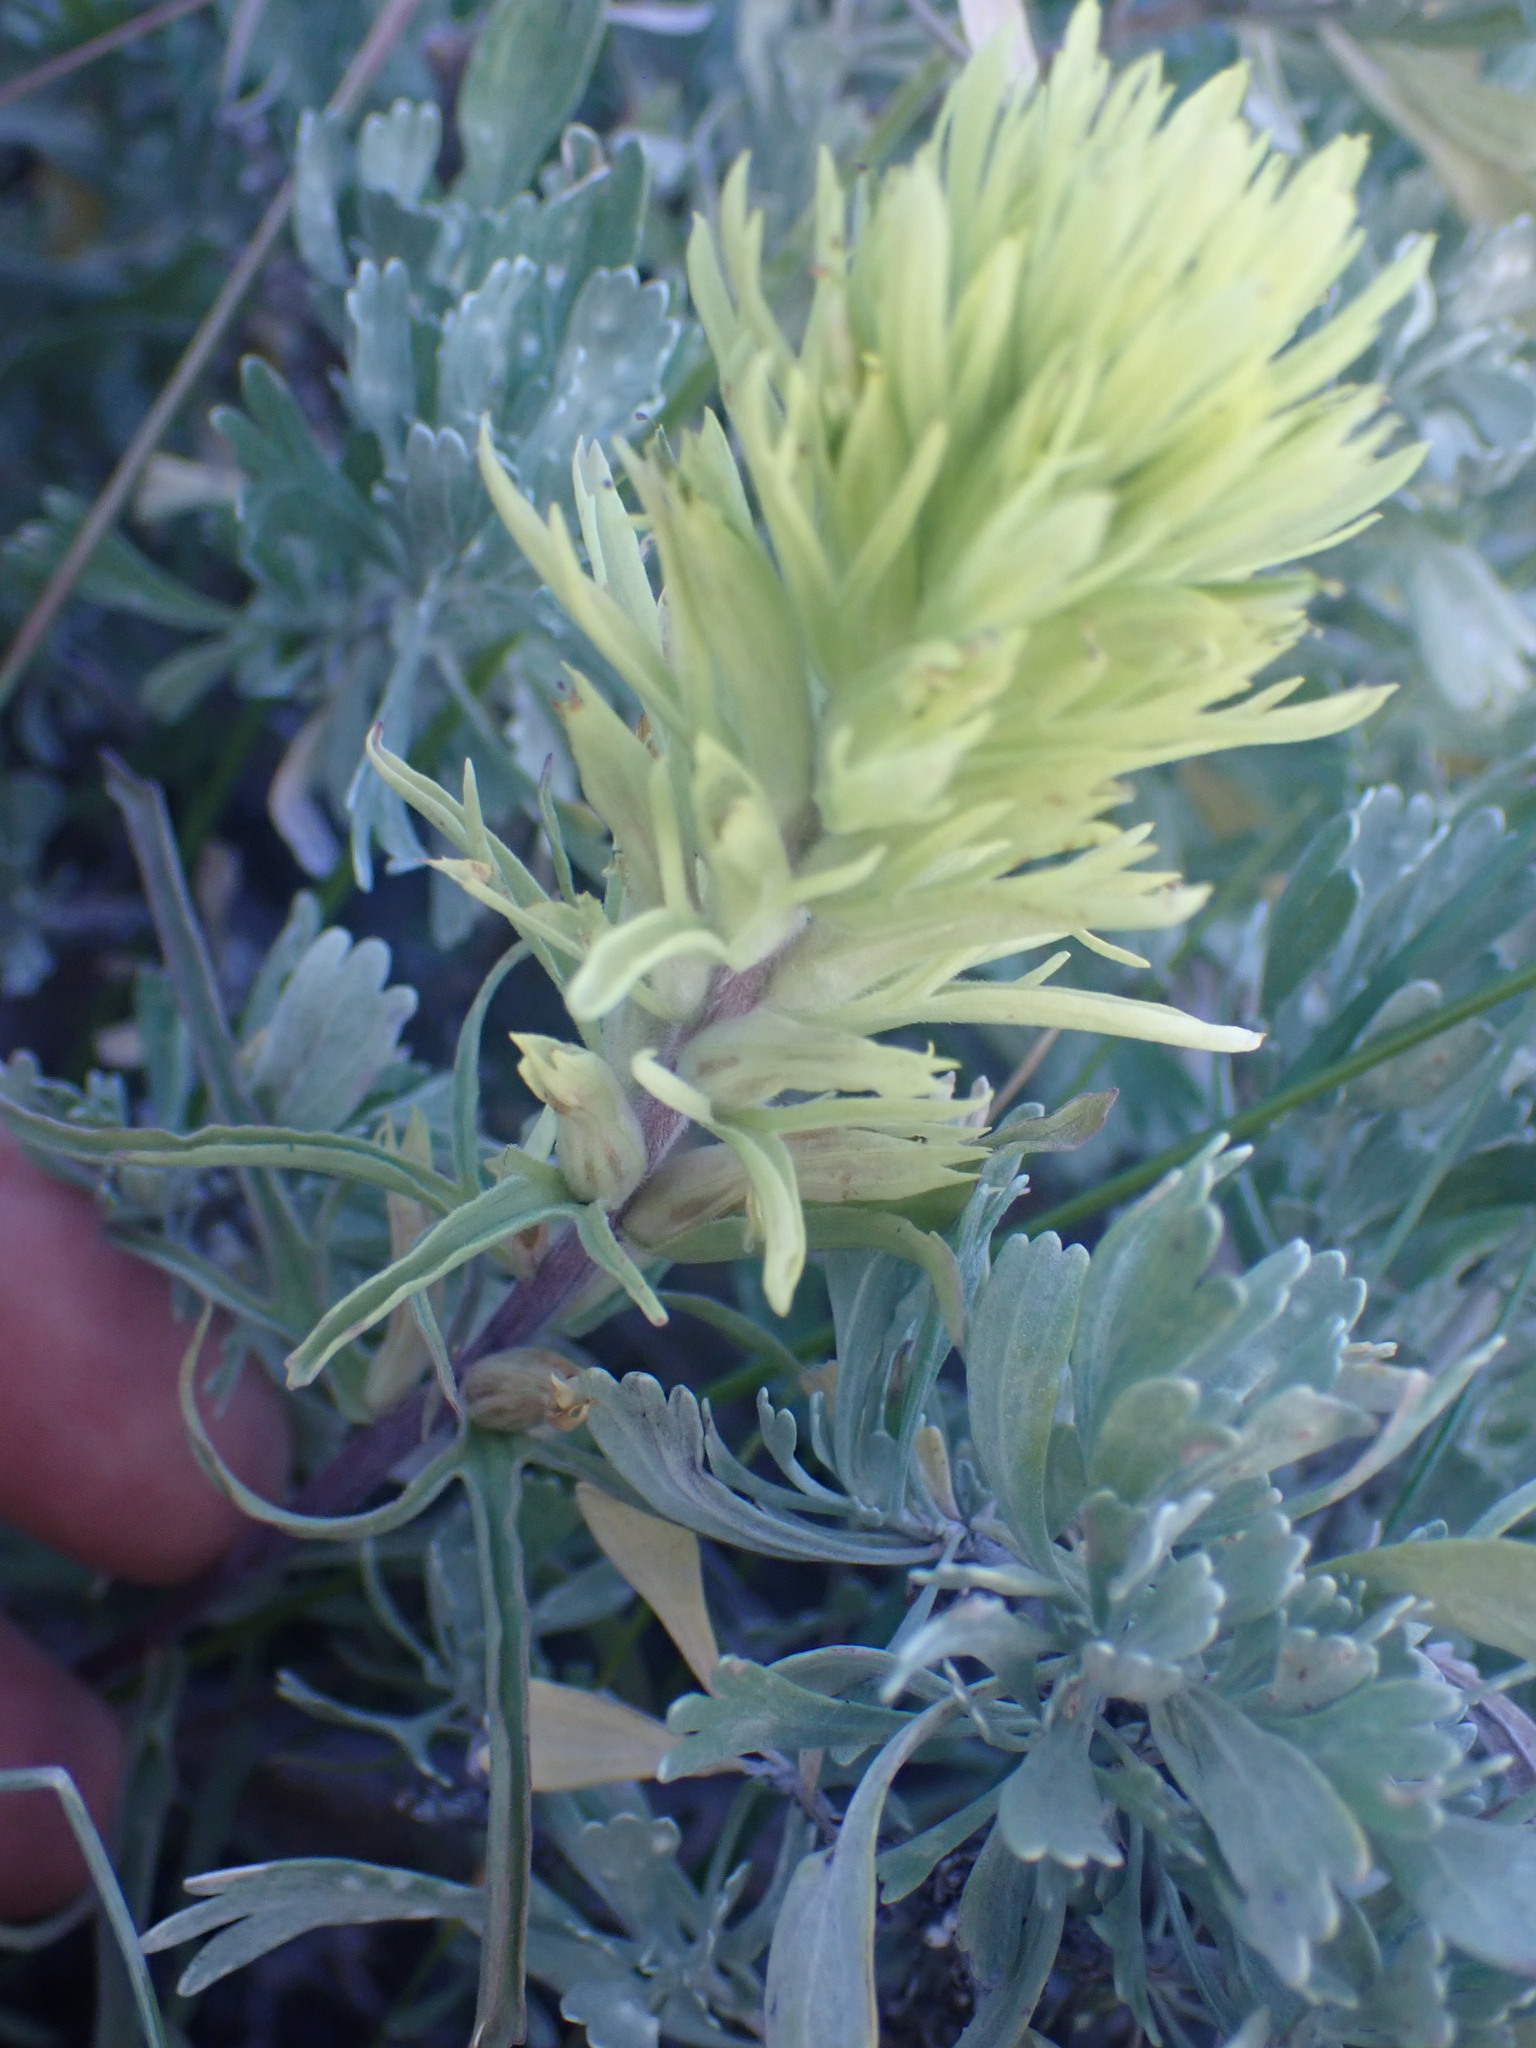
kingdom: Plantae
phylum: Tracheophyta
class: Magnoliopsida
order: Lamiales
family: Orobanchaceae
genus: Castilleja
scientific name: Castilleja thompsonii
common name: Thompson's paintbrush
